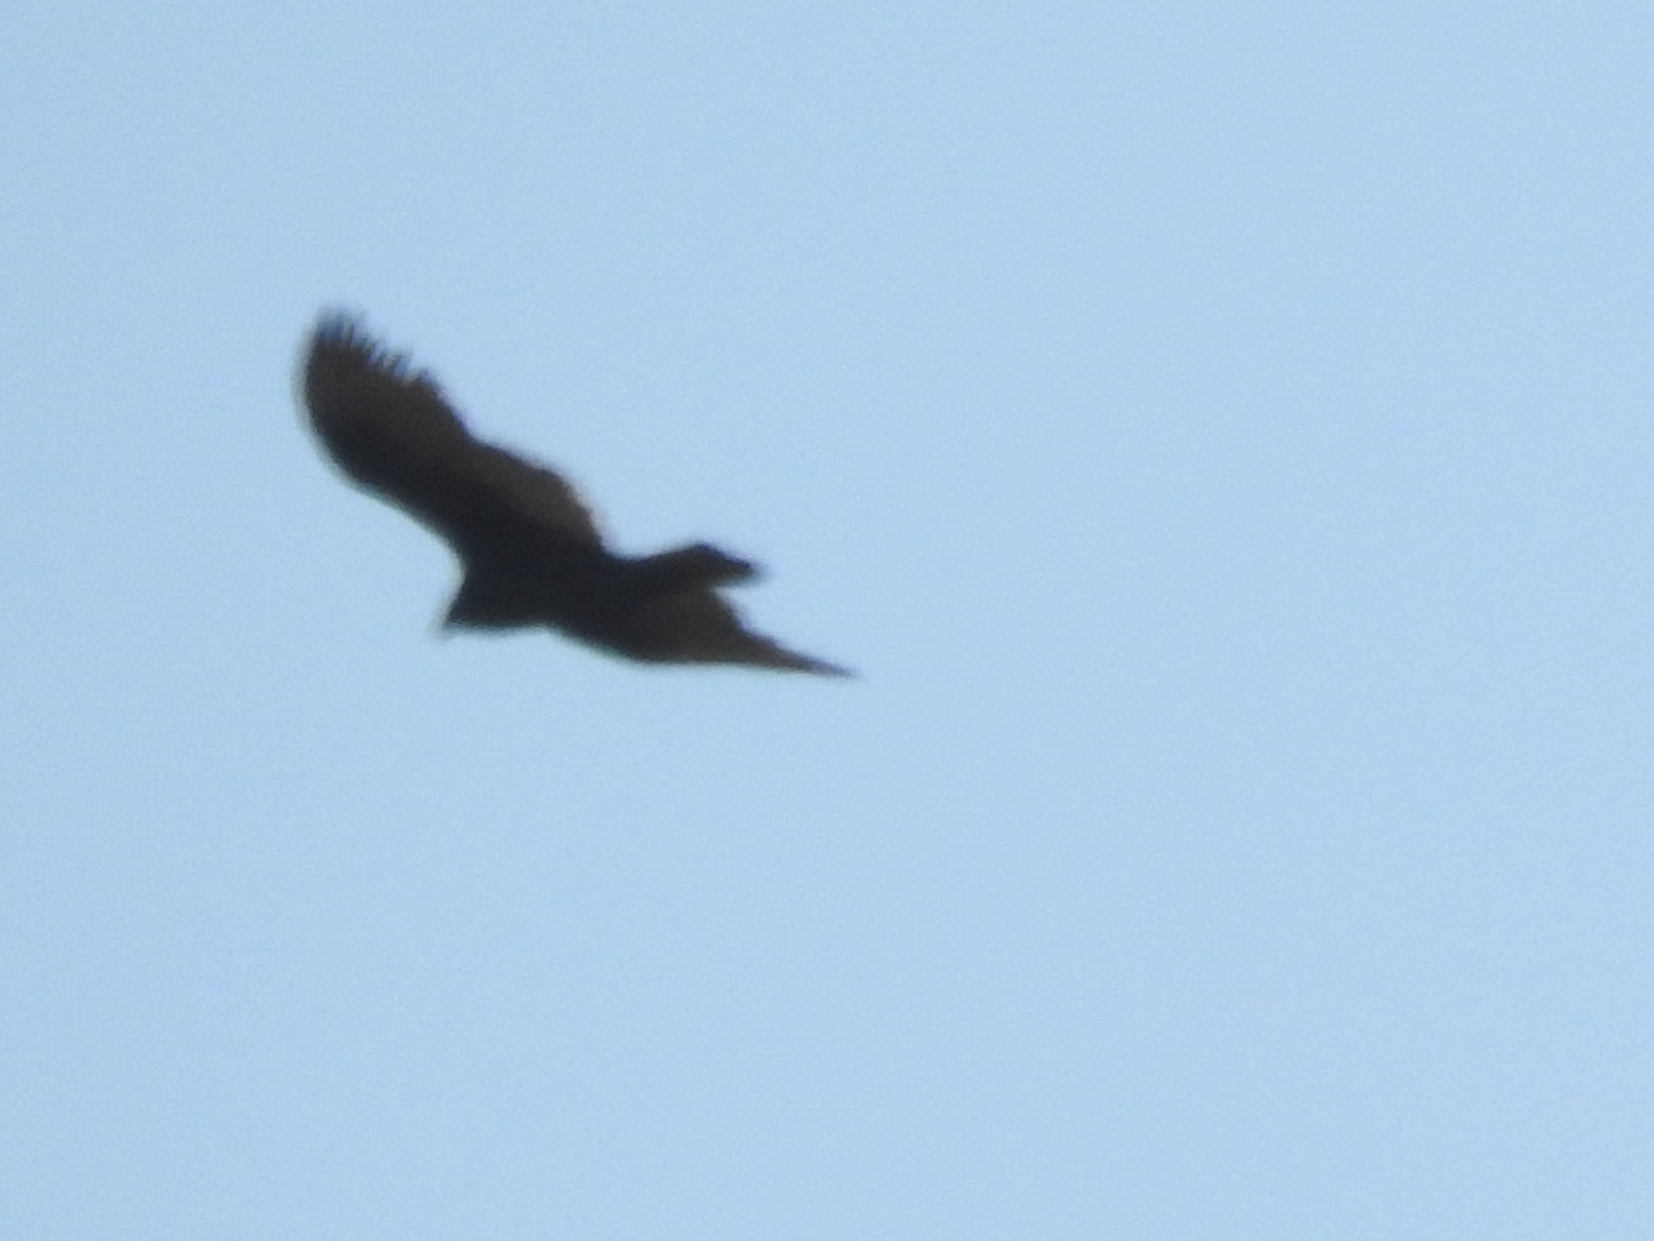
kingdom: Animalia
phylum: Chordata
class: Aves
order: Accipitriformes
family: Cathartidae
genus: Cathartes
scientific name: Cathartes aura
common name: Turkey vulture
